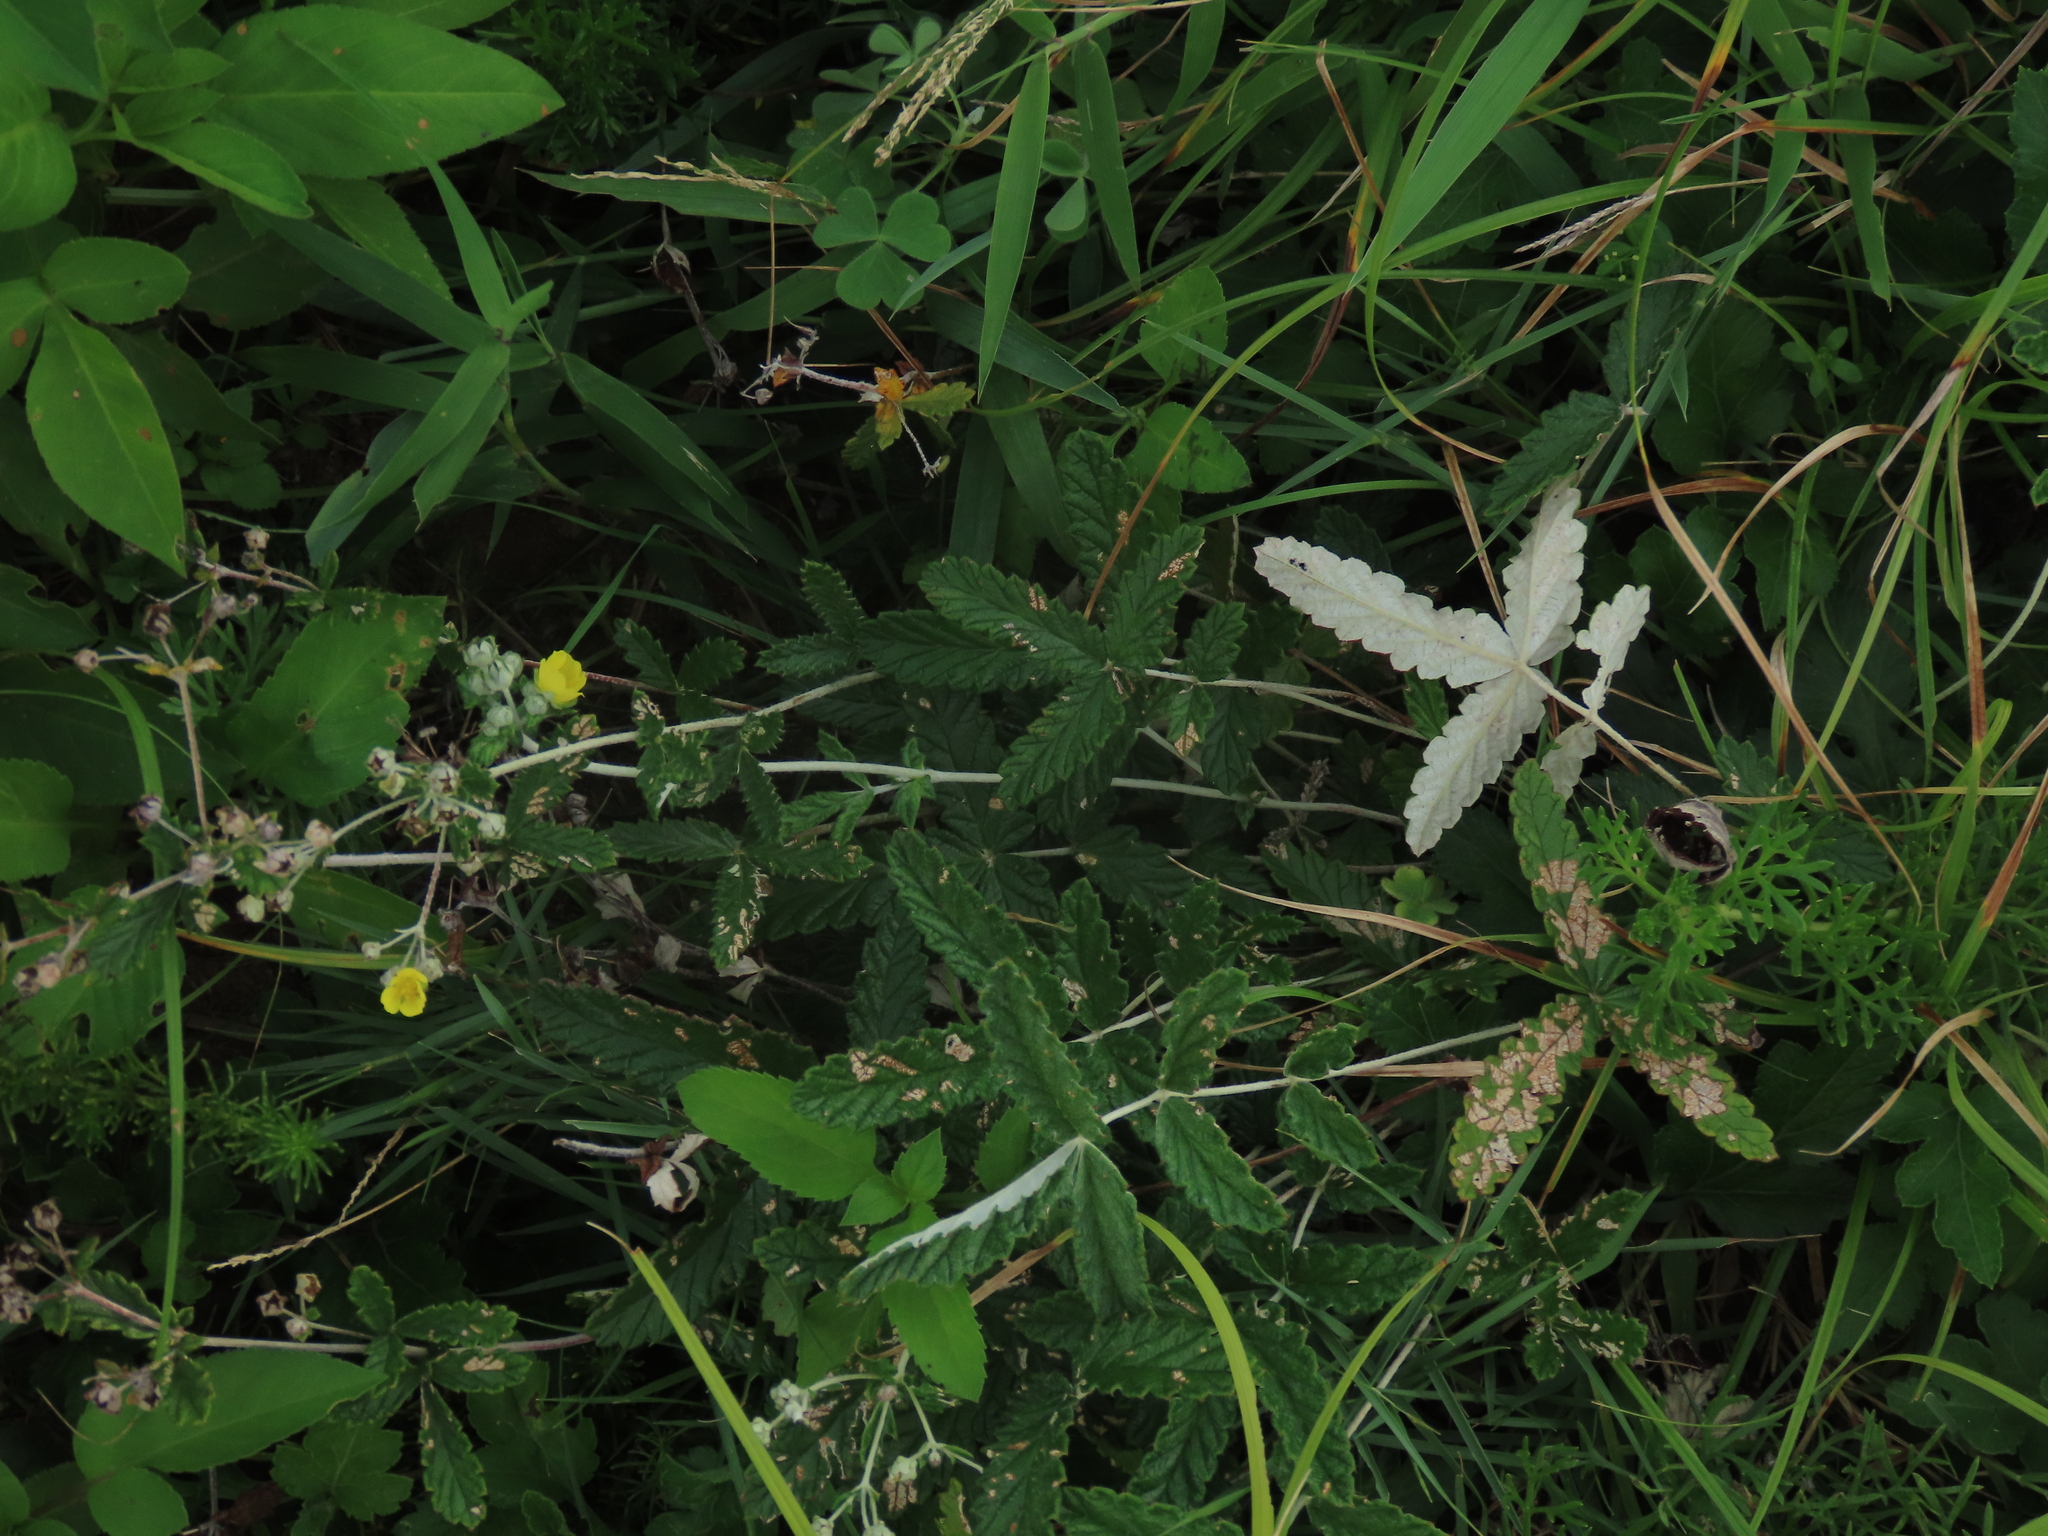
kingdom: Plantae
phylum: Tracheophyta
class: Magnoliopsida
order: Rosales
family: Rosaceae
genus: Potentilla
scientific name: Potentilla discolor
